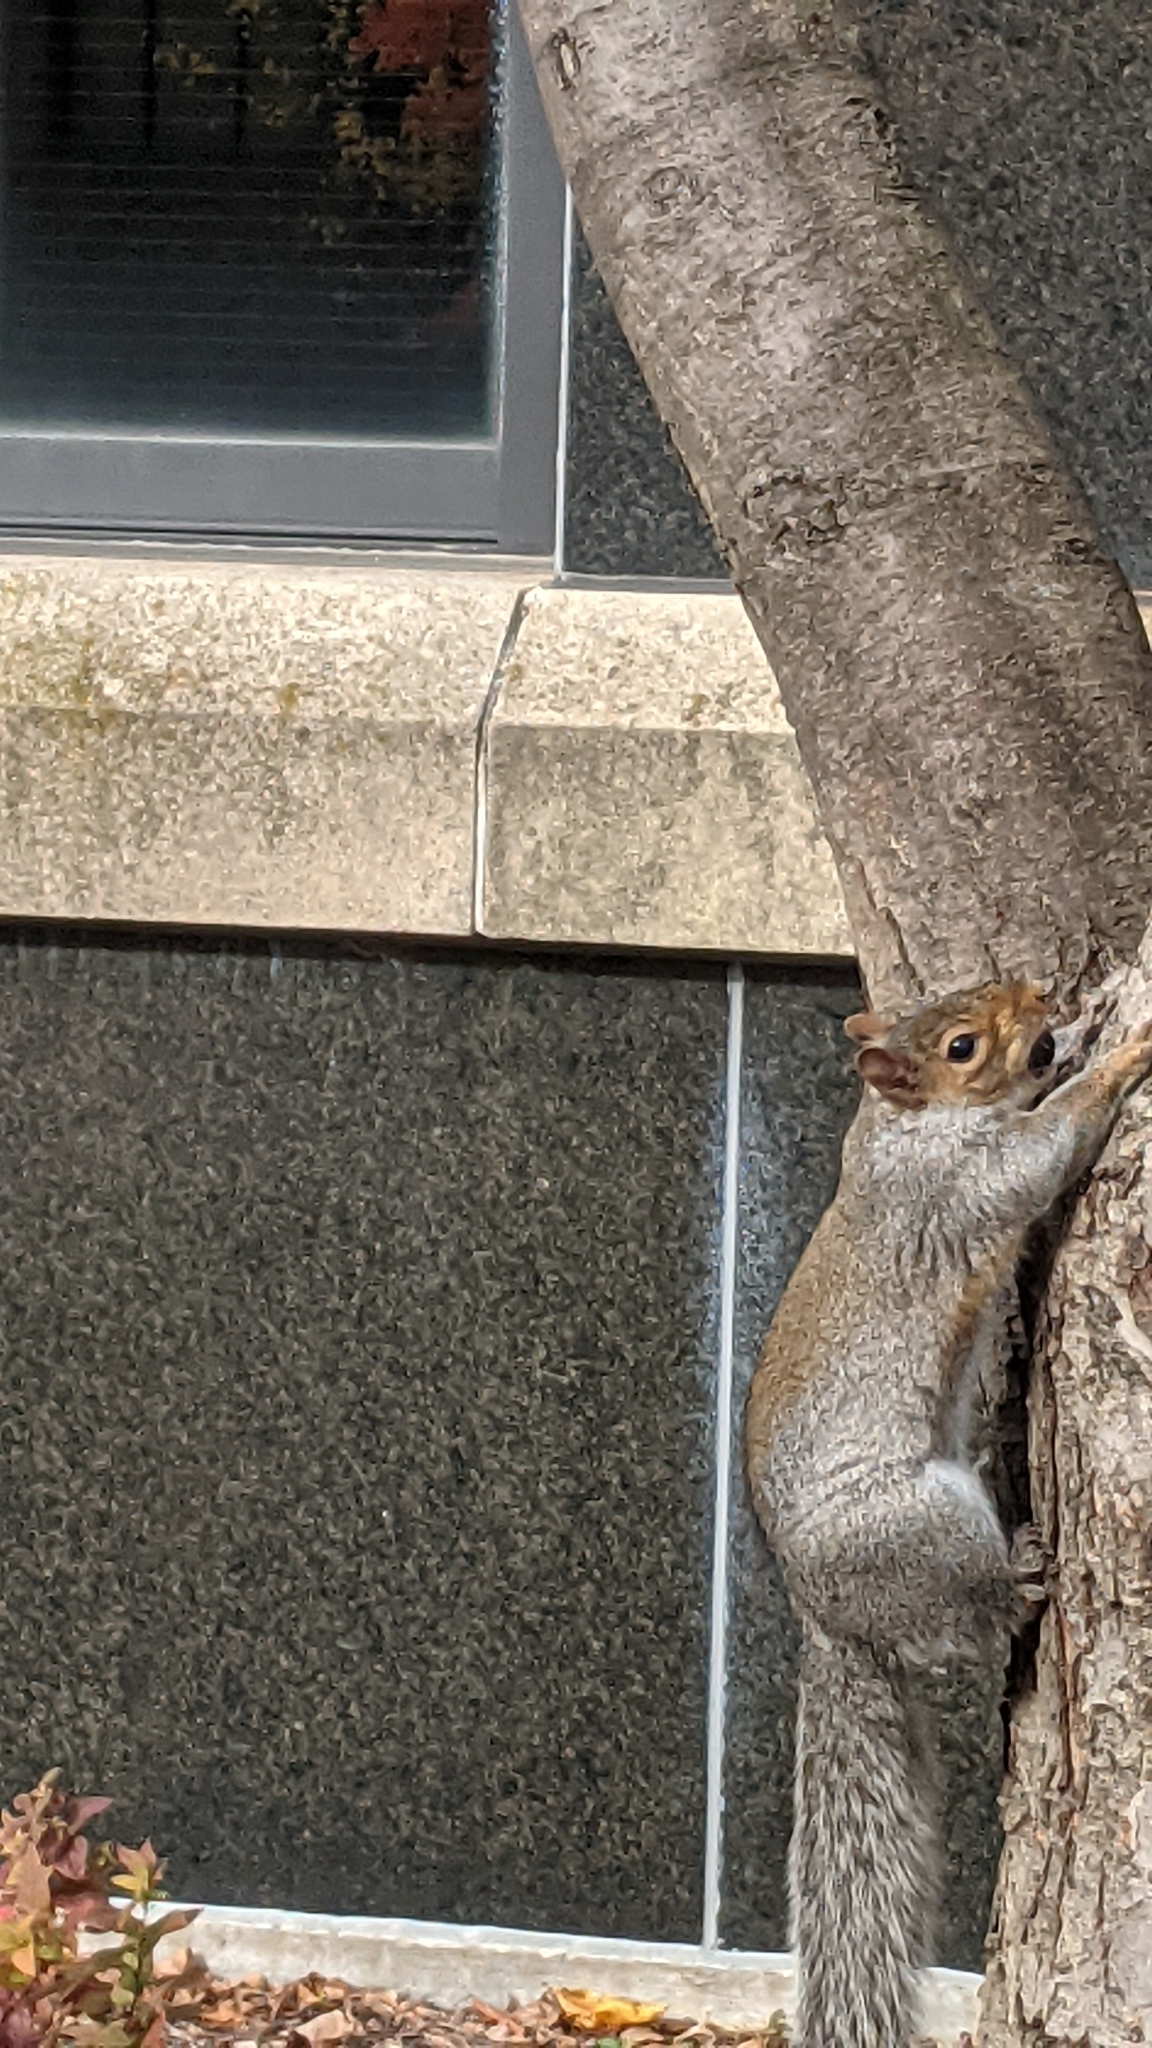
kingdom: Animalia
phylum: Chordata
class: Mammalia
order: Rodentia
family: Sciuridae
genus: Sciurus
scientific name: Sciurus carolinensis
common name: Eastern gray squirrel
